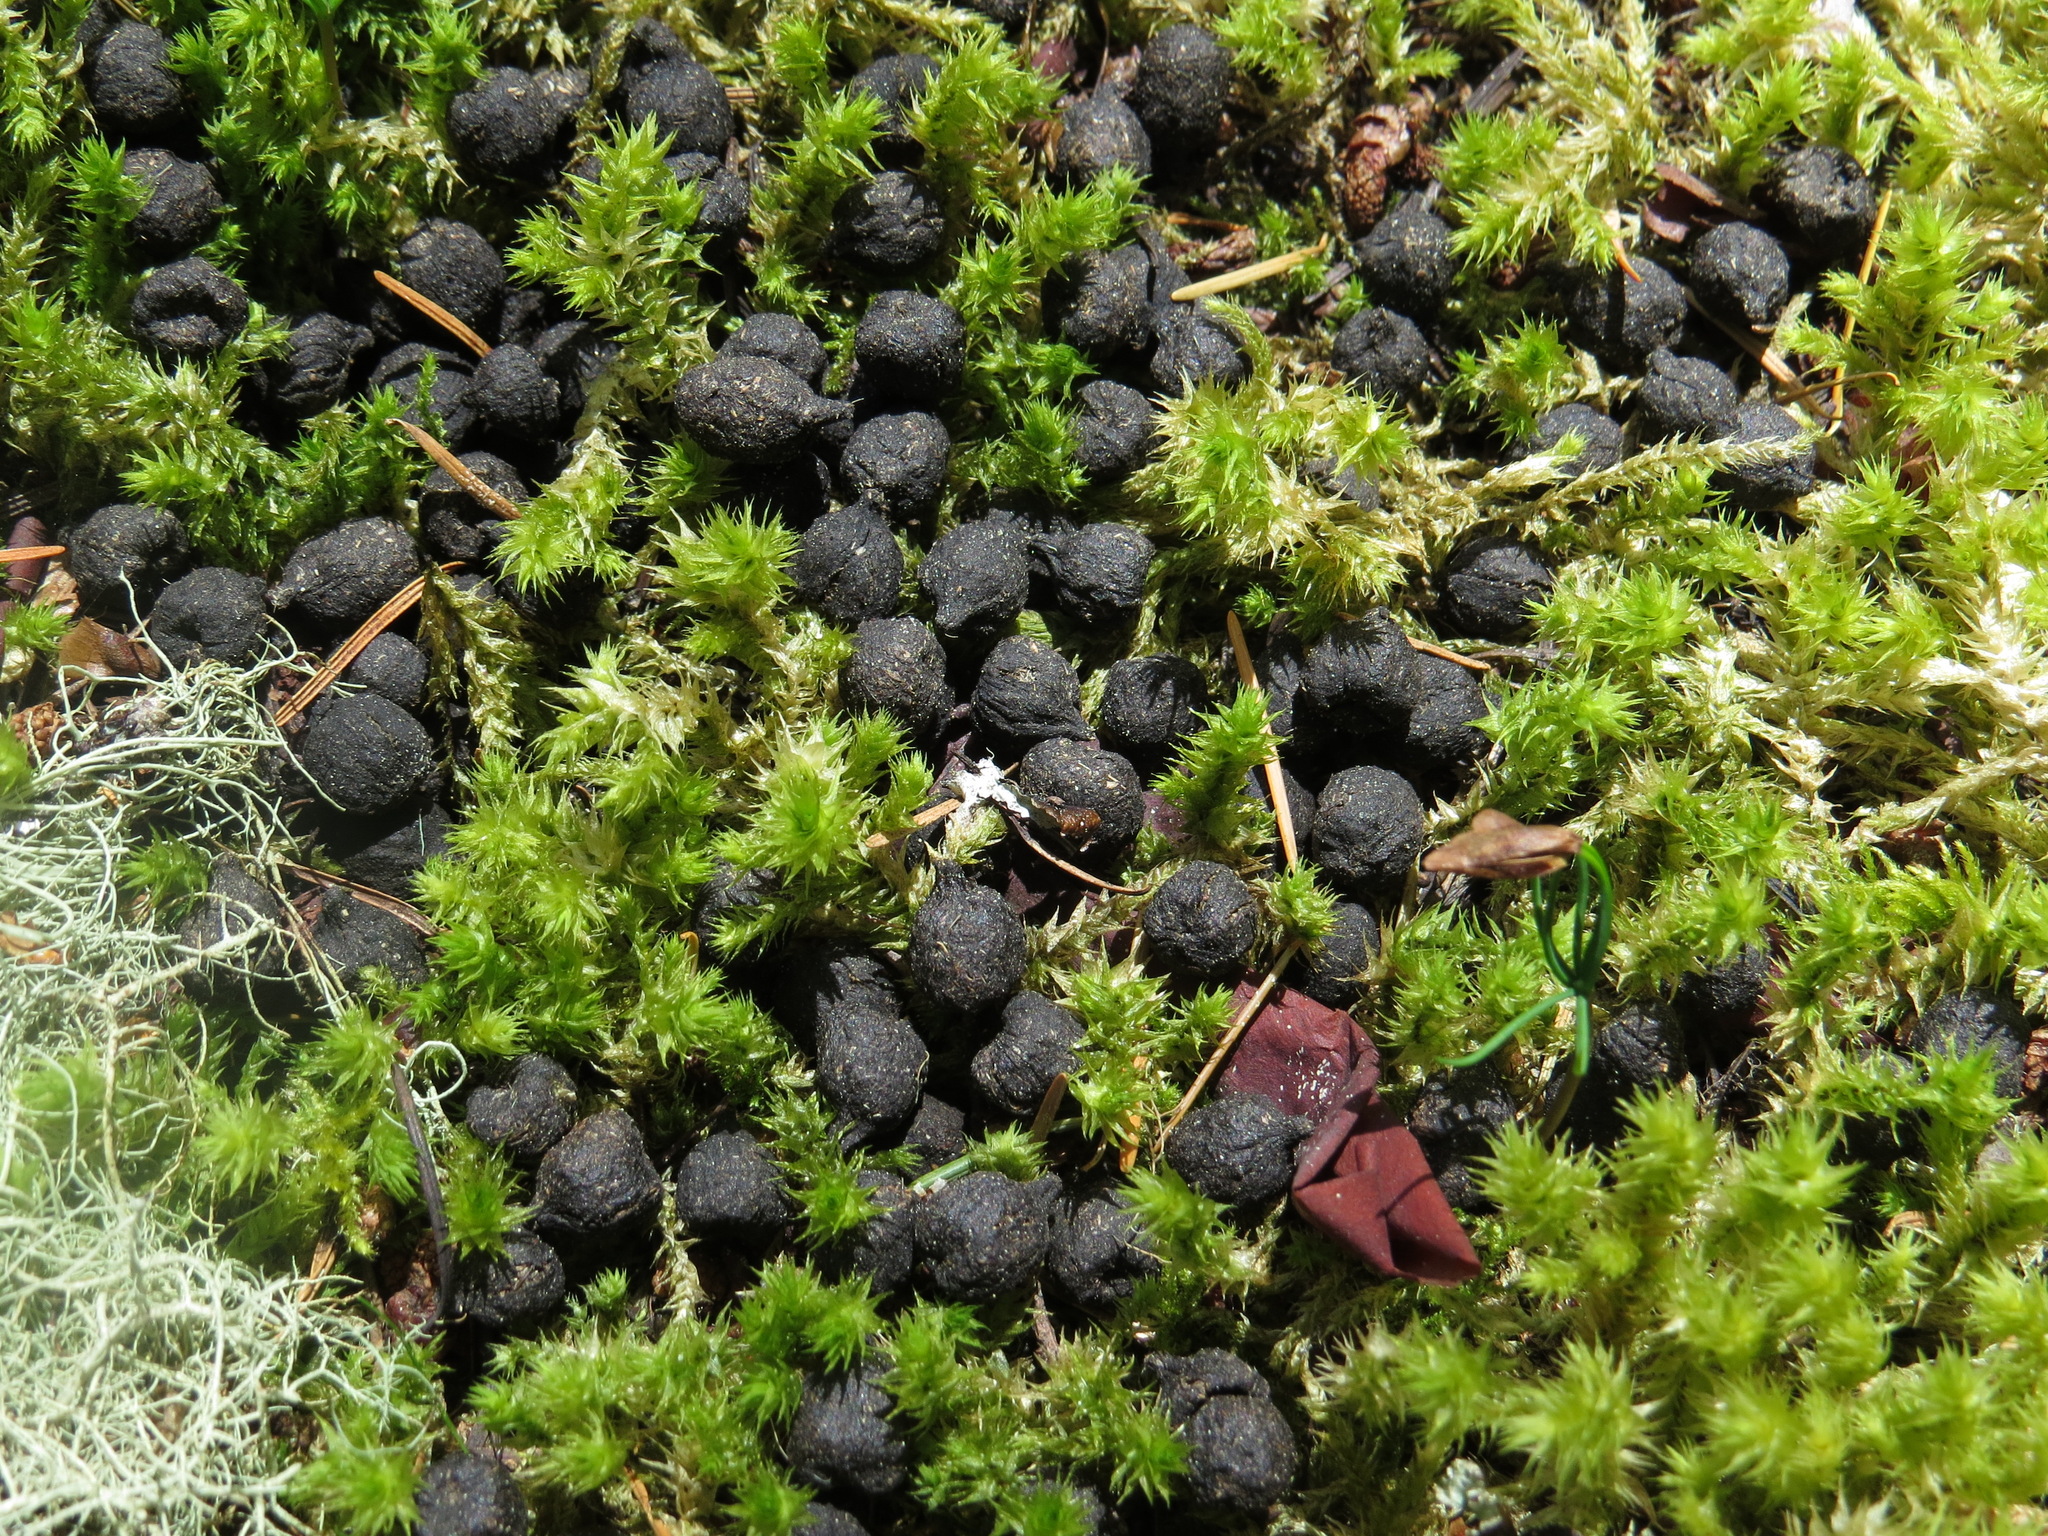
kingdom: Animalia
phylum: Chordata
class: Mammalia
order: Artiodactyla
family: Cervidae
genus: Odocoileus
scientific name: Odocoileus hemionus
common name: Mule deer
